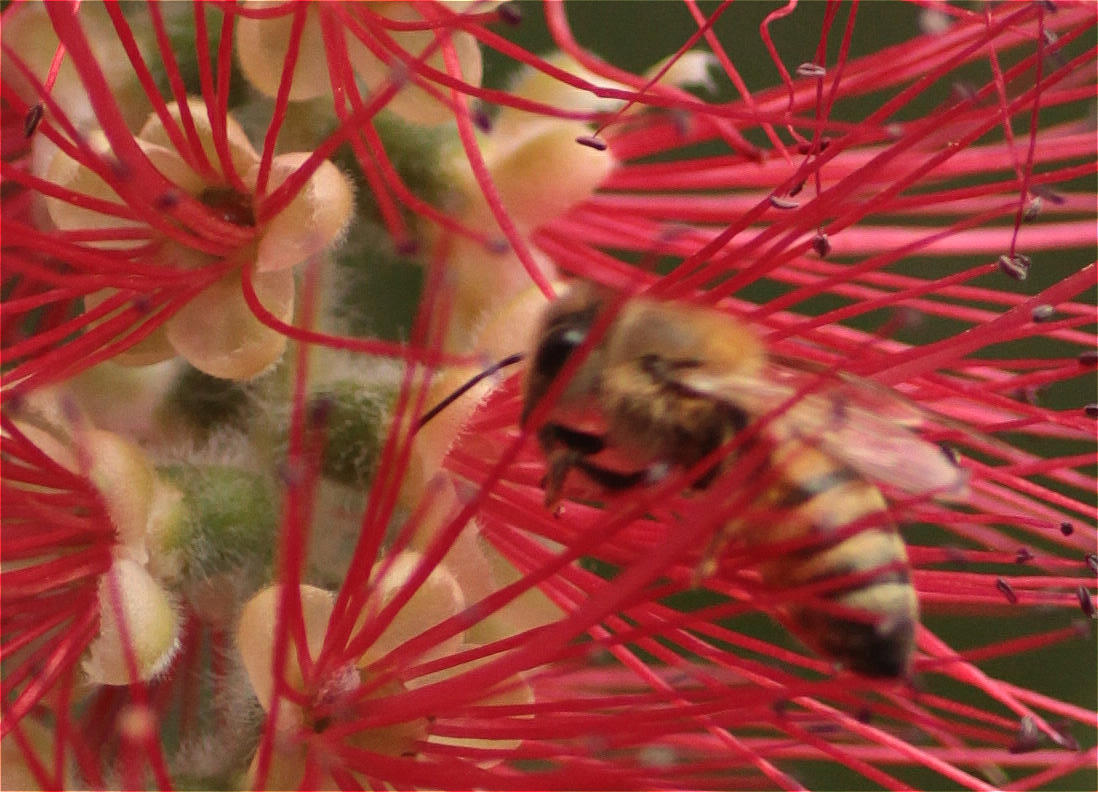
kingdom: Animalia
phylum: Arthropoda
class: Insecta
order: Hymenoptera
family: Apidae
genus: Apis
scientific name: Apis mellifera
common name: Honey bee
